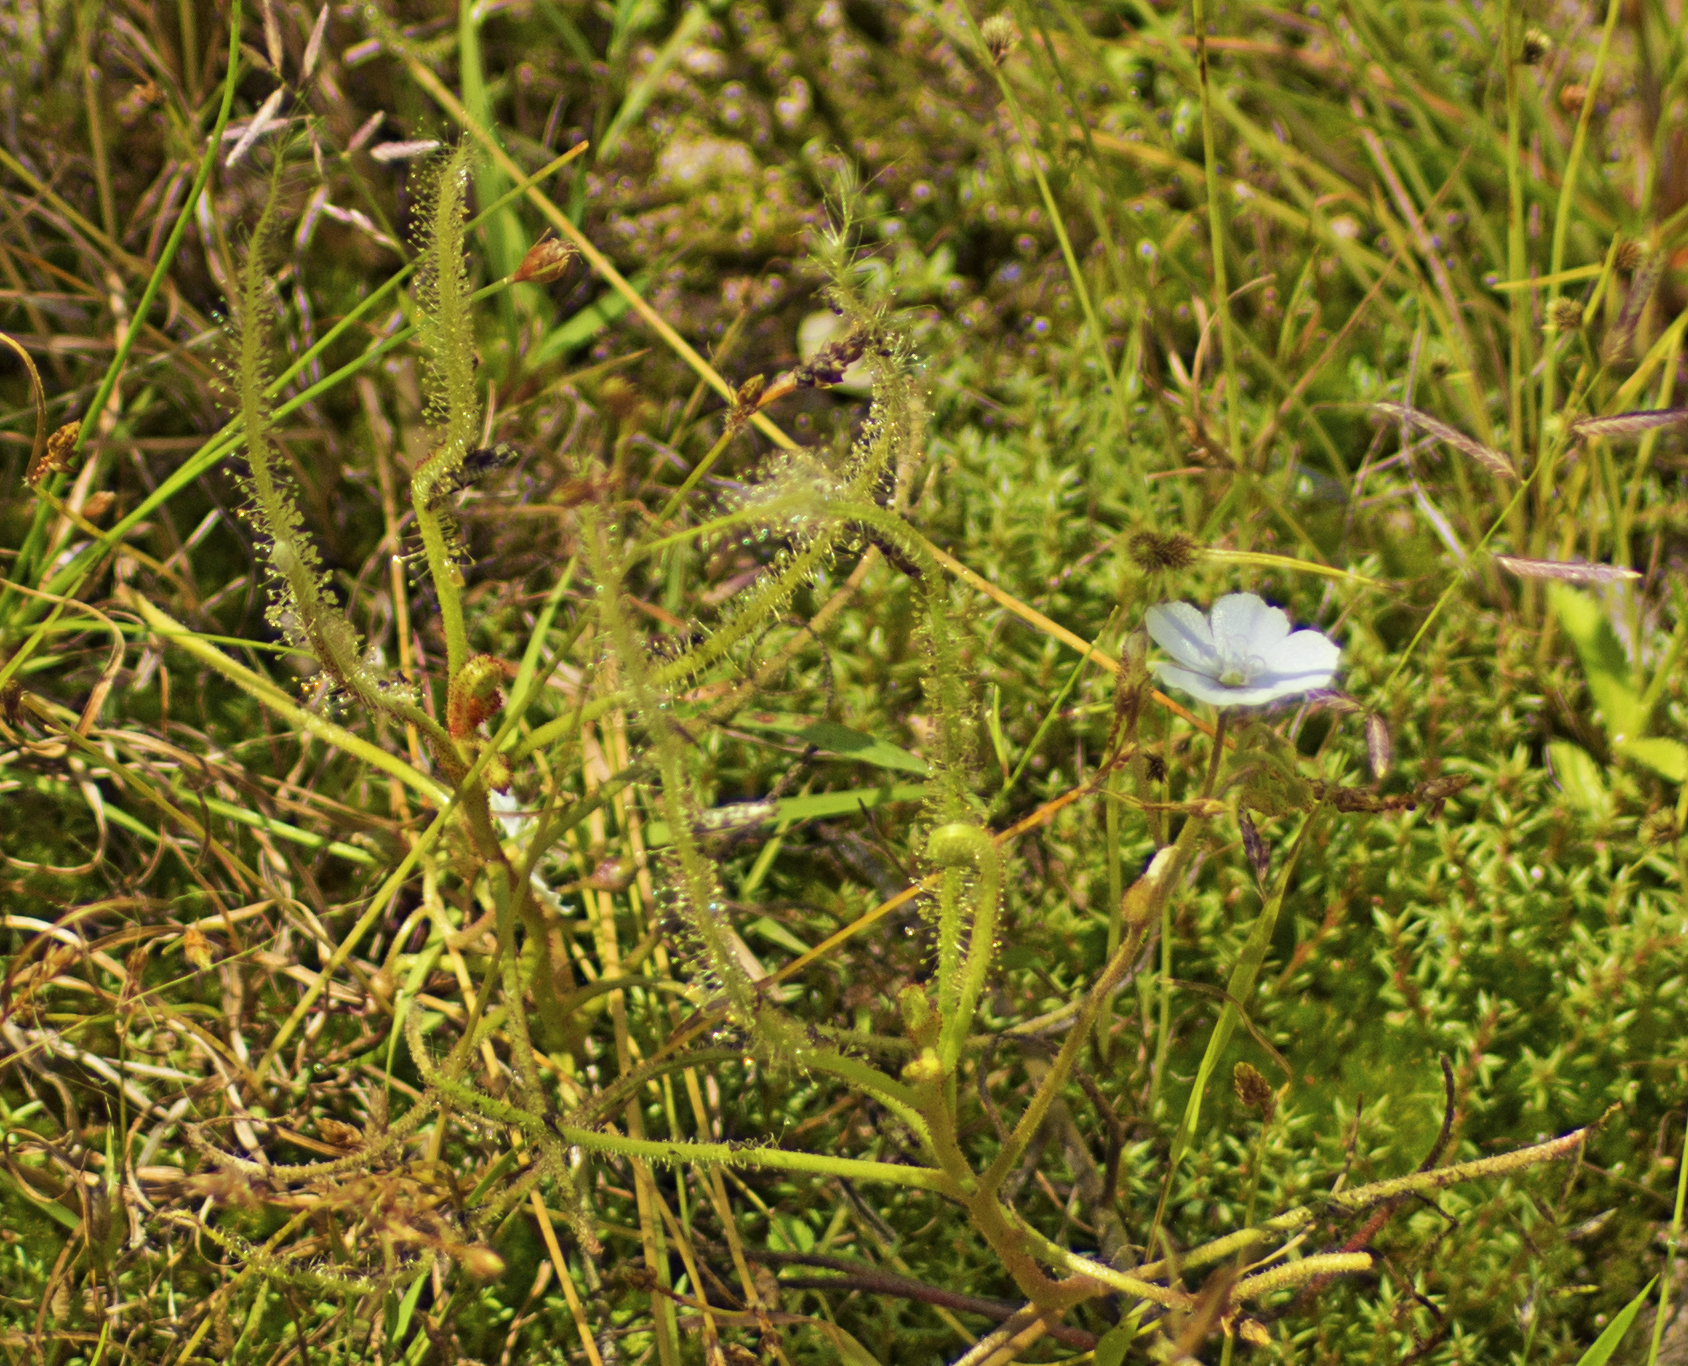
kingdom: Plantae
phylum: Tracheophyta
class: Magnoliopsida
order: Caryophyllales
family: Droseraceae
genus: Drosera
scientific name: Drosera indica
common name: Indian sundew
